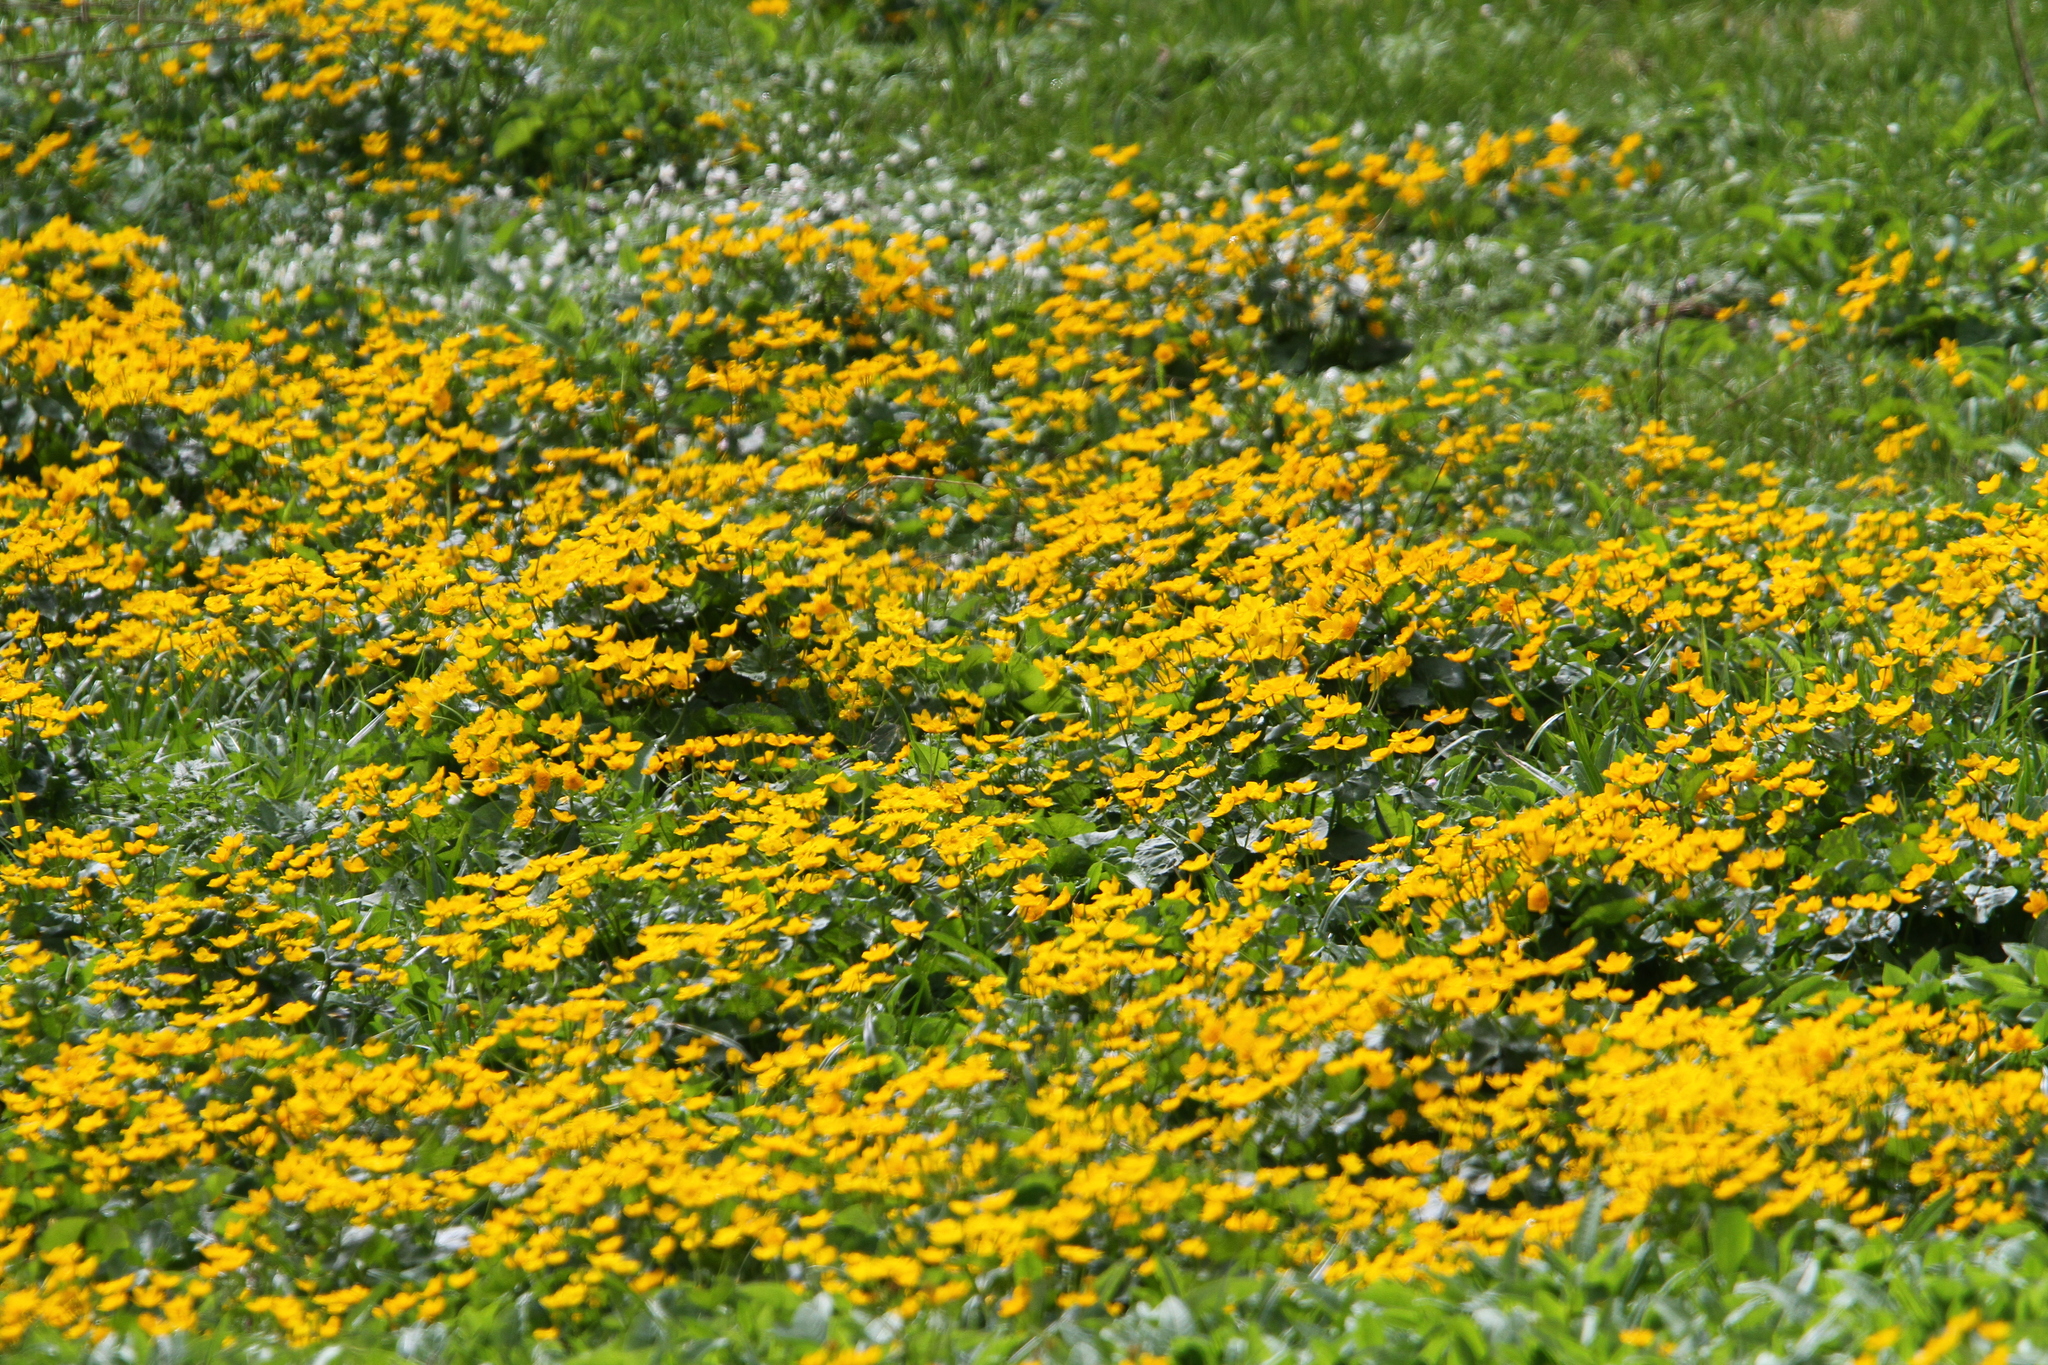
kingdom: Plantae
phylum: Tracheophyta
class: Magnoliopsida
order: Ranunculales
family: Ranunculaceae
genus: Caltha
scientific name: Caltha palustris
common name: Marsh marigold
